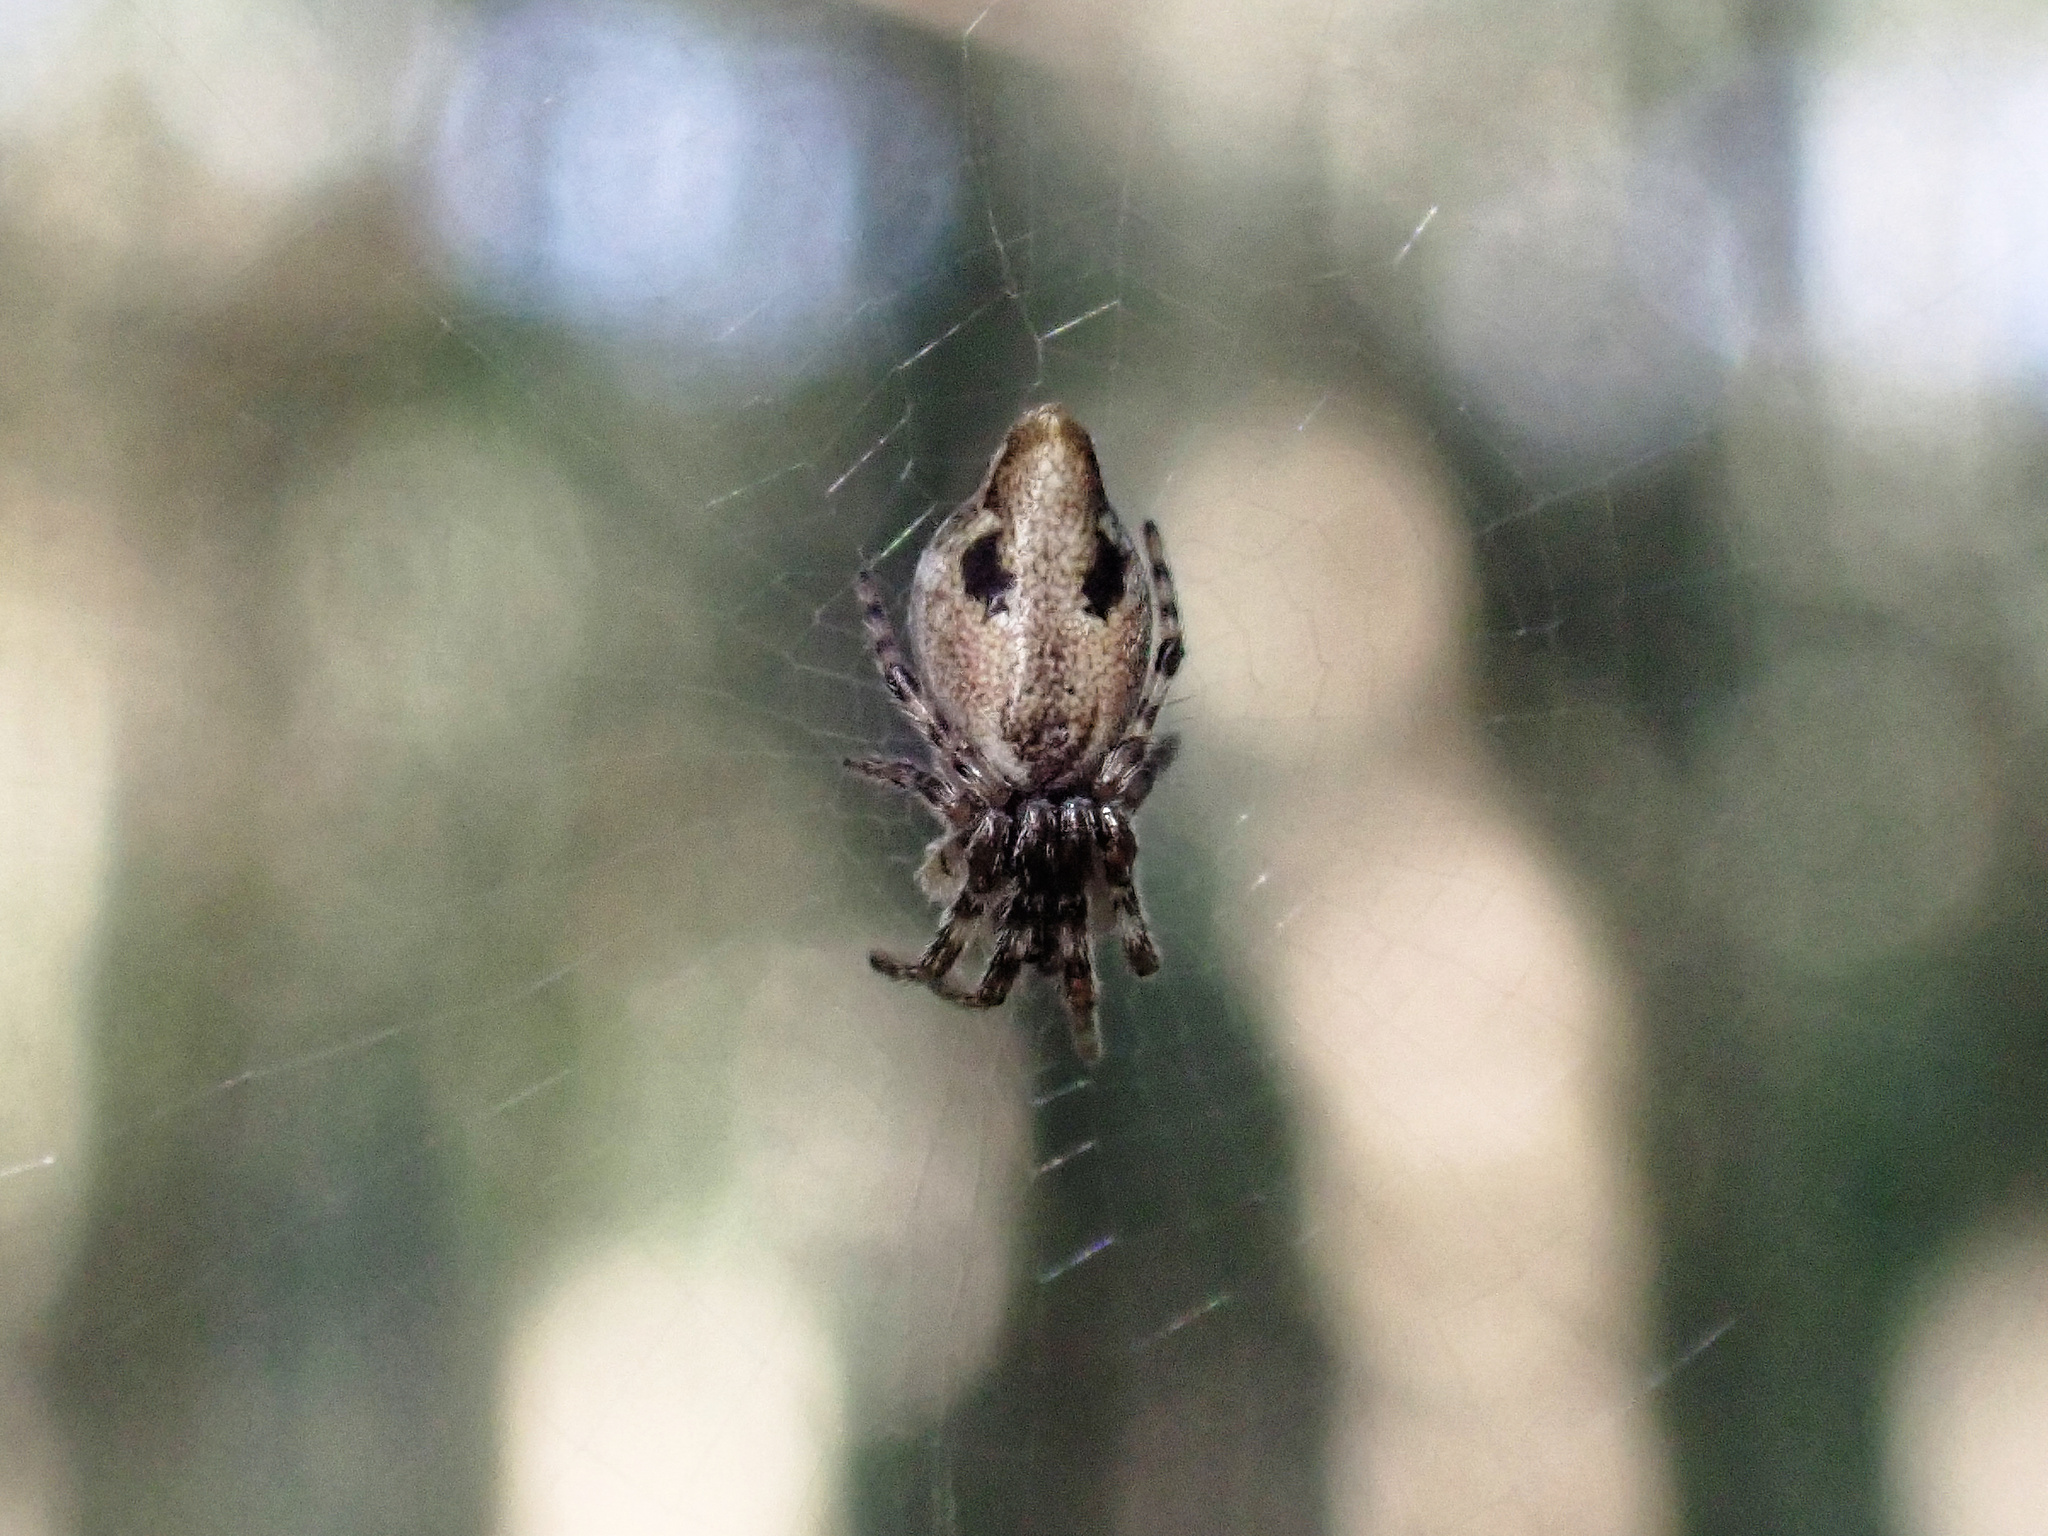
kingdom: Animalia
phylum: Arthropoda
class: Arachnida
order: Araneae
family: Araneidae
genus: Cyclosa
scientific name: Cyclosa conica
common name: Conical trashline orbweaver
